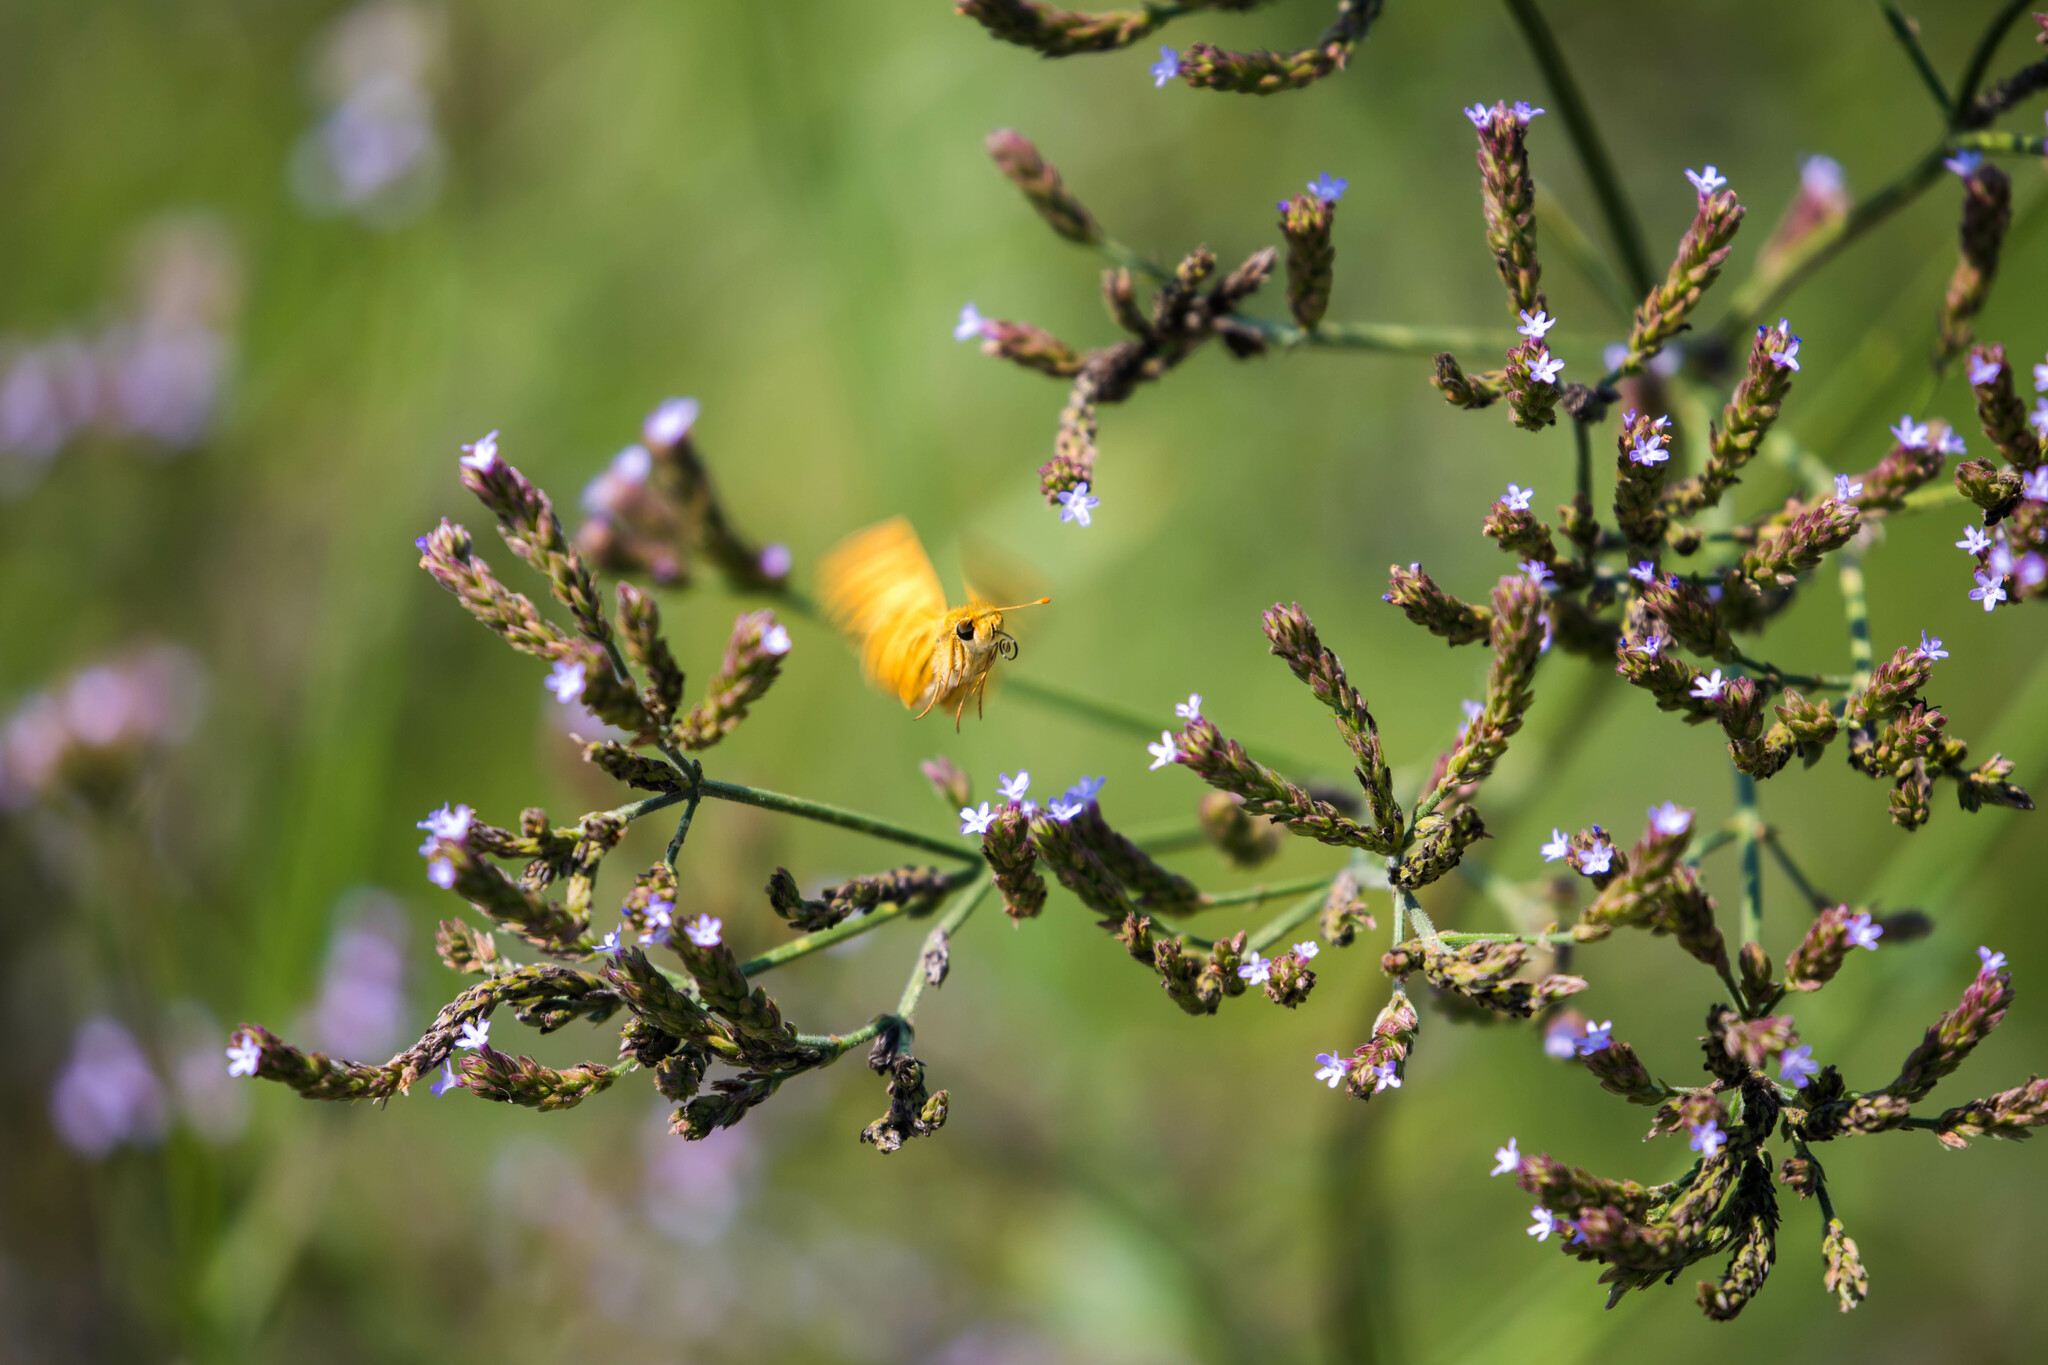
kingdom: Animalia
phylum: Arthropoda
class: Insecta
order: Lepidoptera
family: Hesperiidae
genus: Hylephila
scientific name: Hylephila phyleus
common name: Fiery skipper
